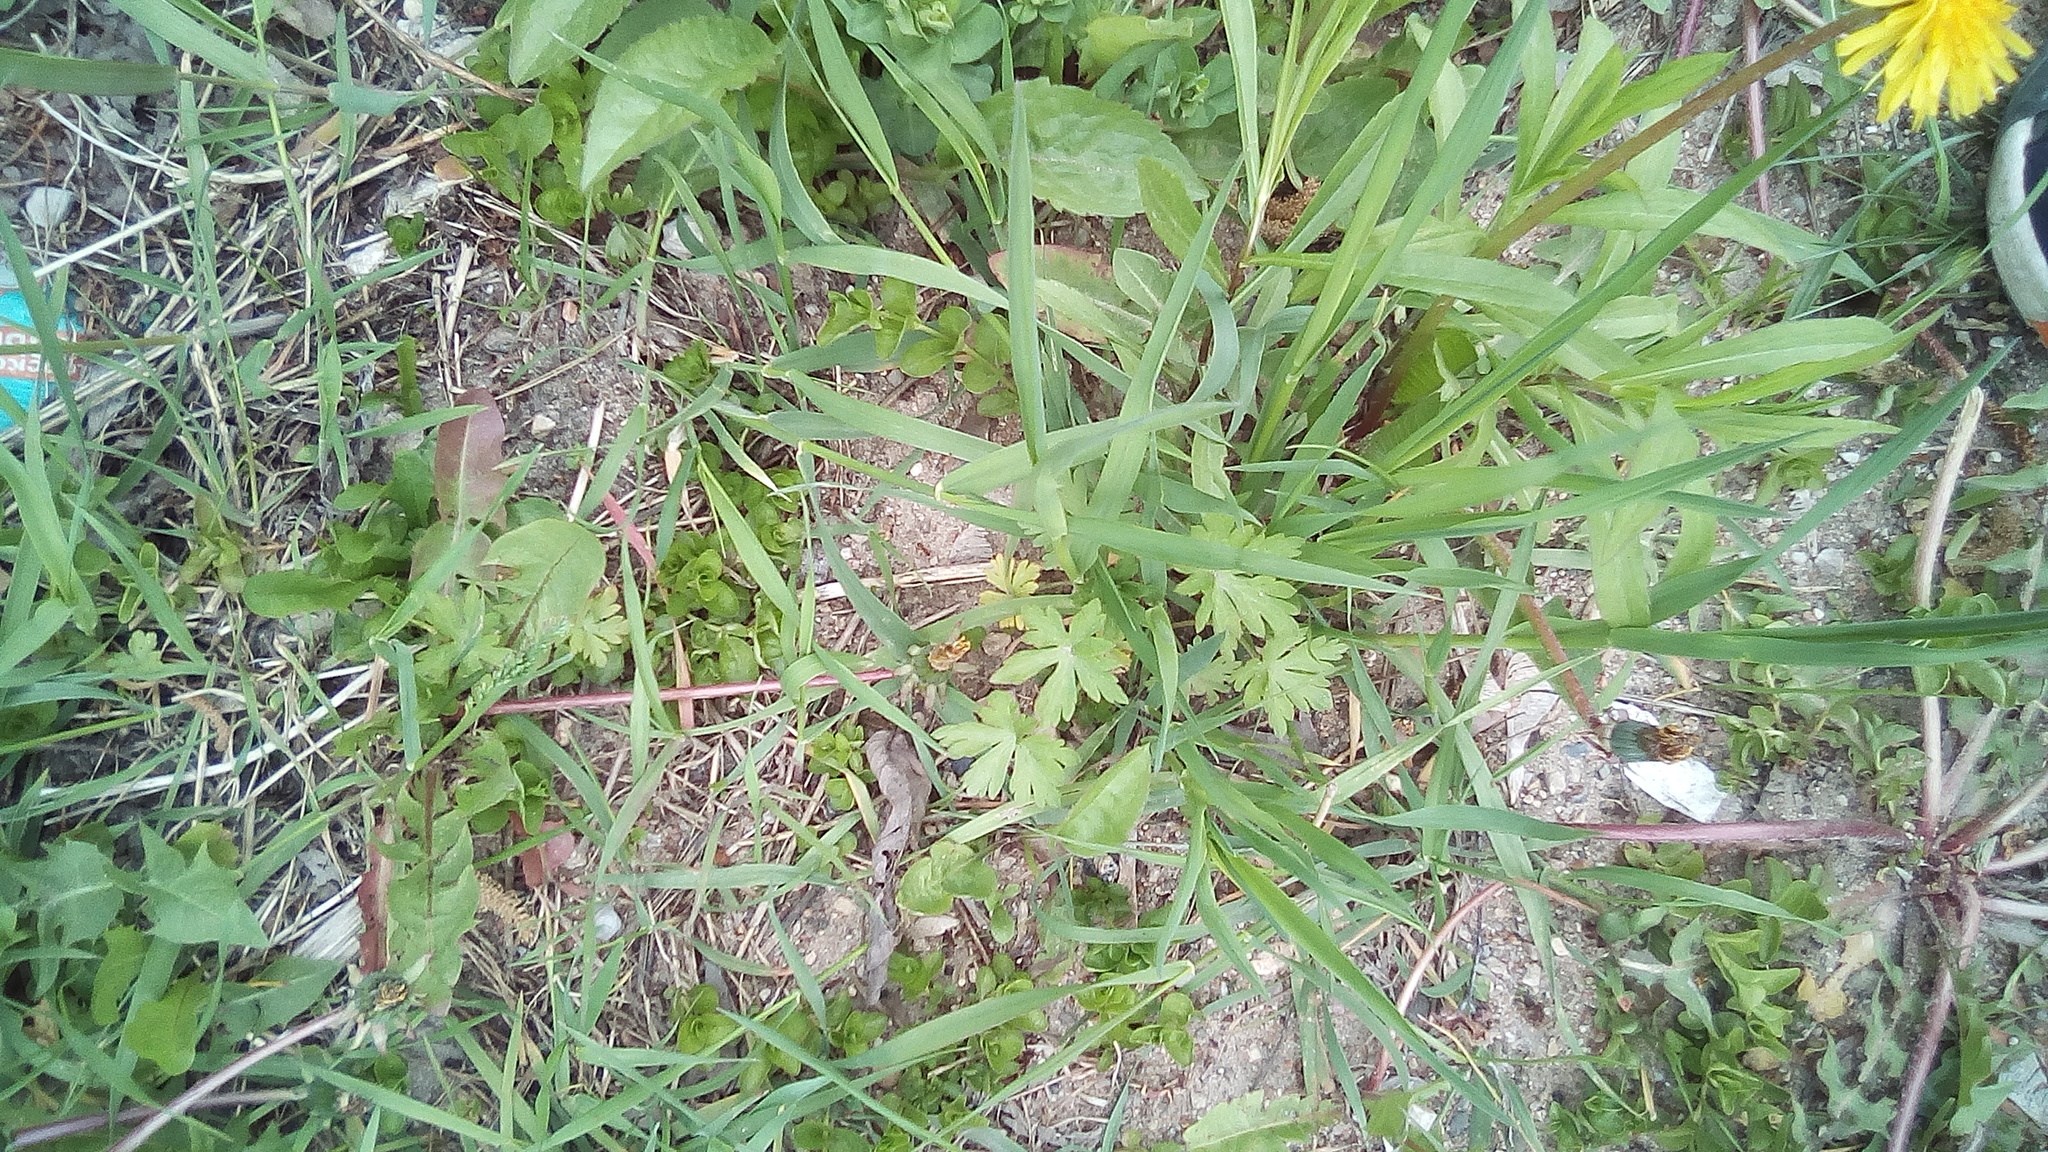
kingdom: Plantae
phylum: Tracheophyta
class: Magnoliopsida
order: Asterales
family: Asteraceae
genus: Taraxacum
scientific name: Taraxacum officinale
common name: Common dandelion
